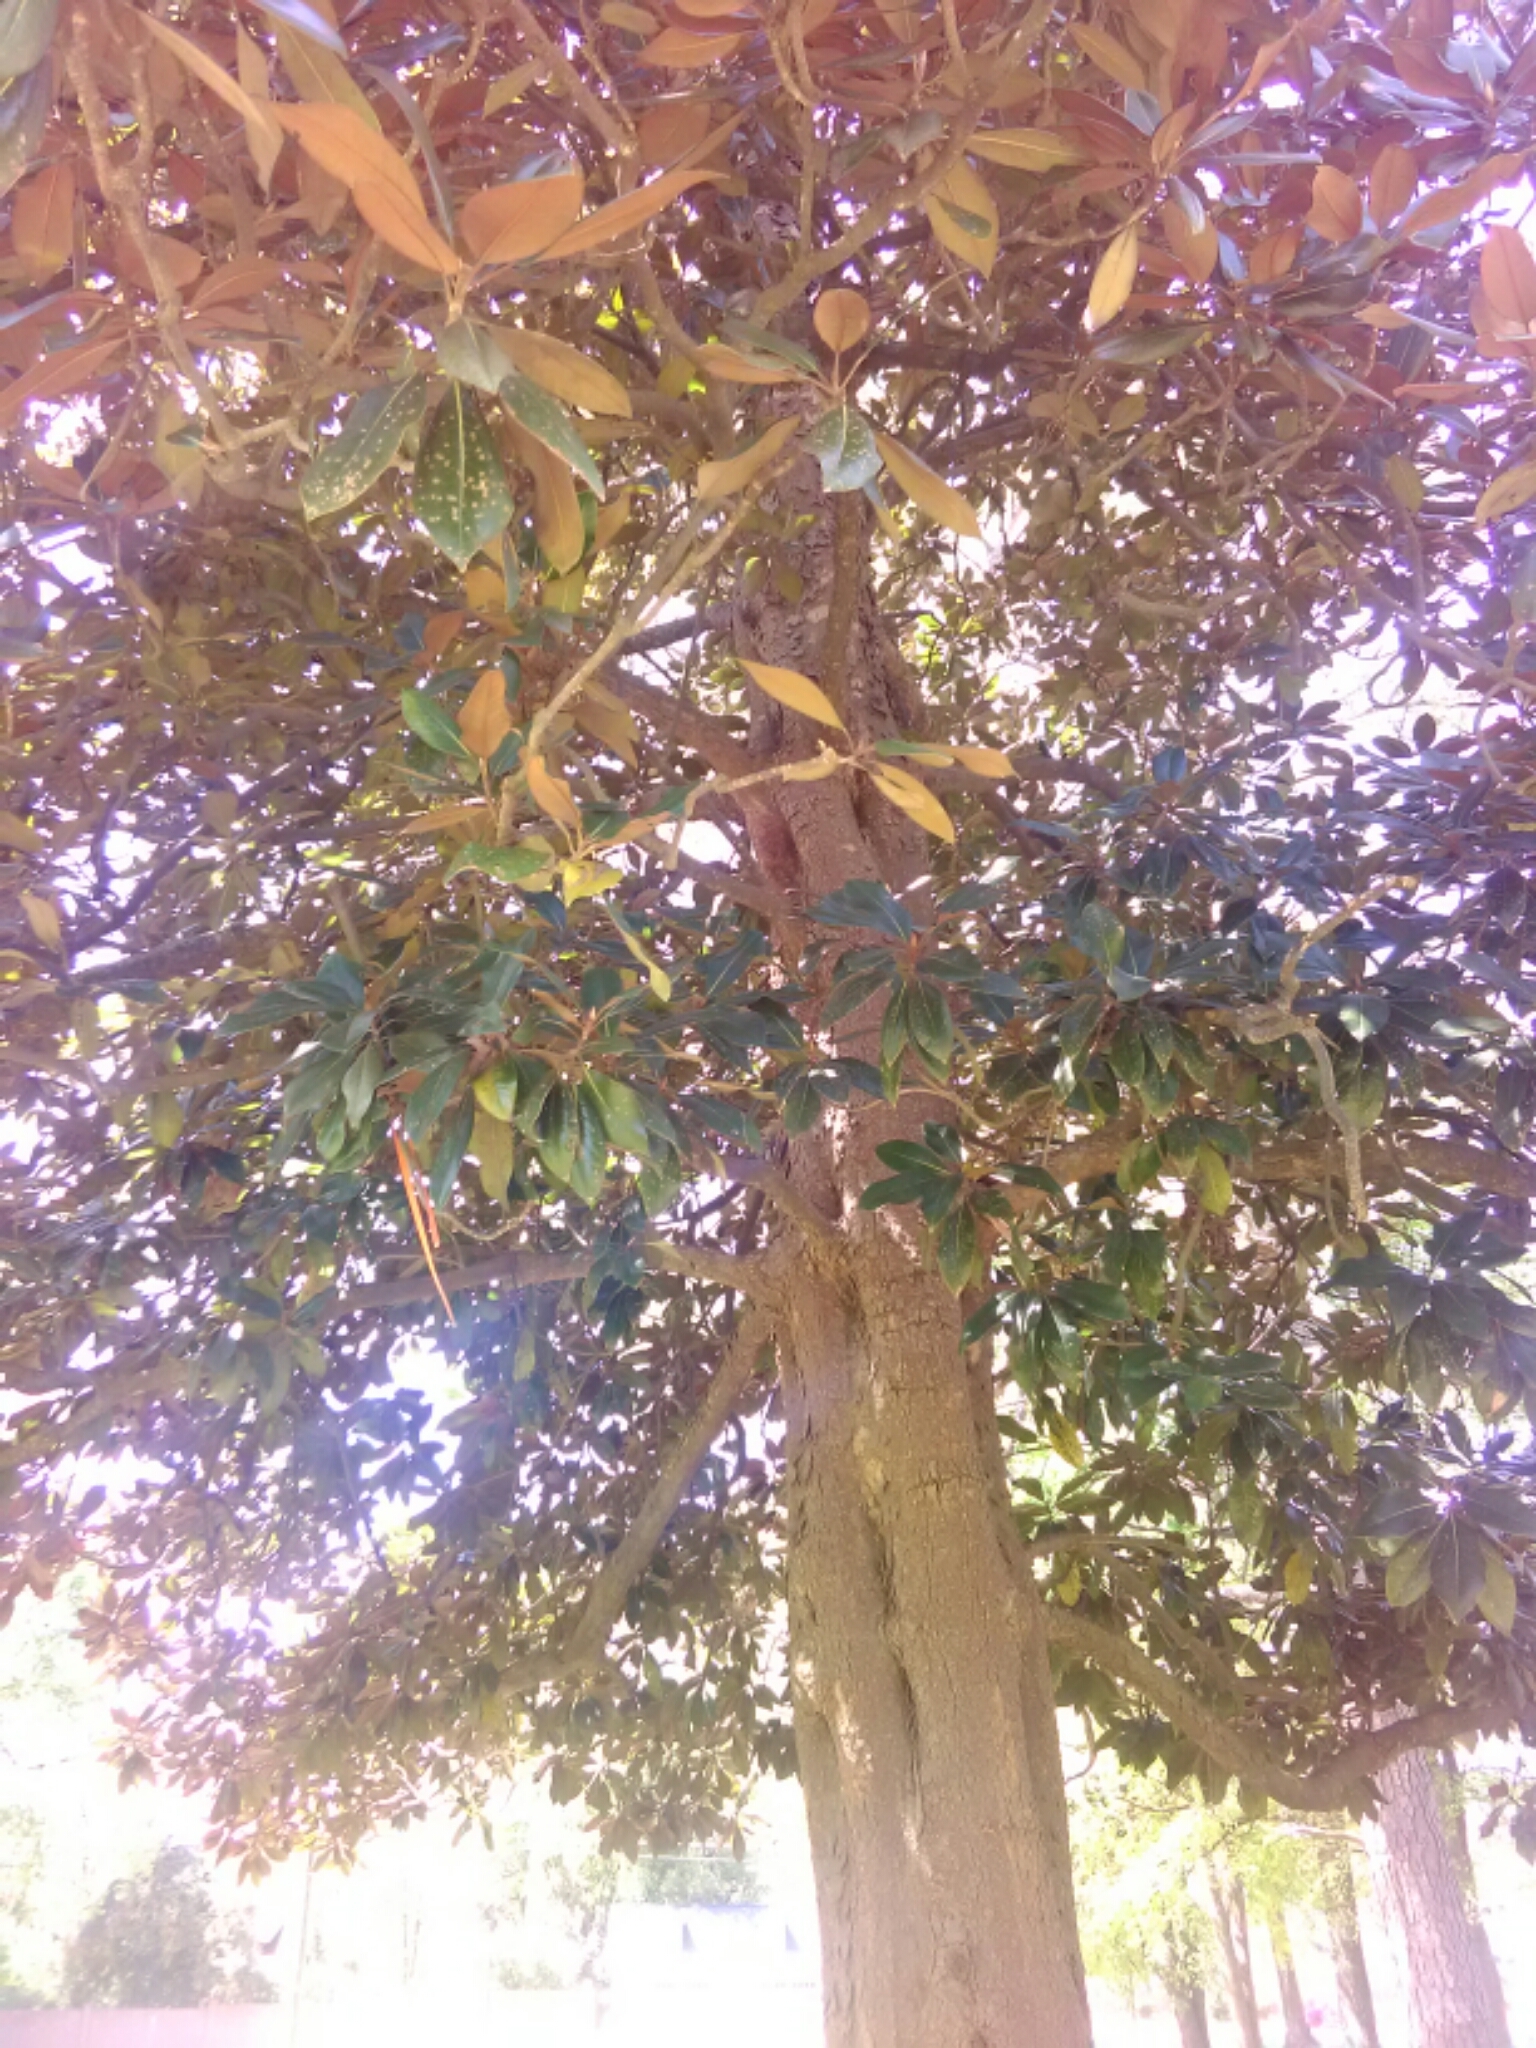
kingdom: Plantae
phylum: Tracheophyta
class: Magnoliopsida
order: Magnoliales
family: Magnoliaceae
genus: Magnolia
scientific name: Magnolia grandiflora
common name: Southern magnolia
